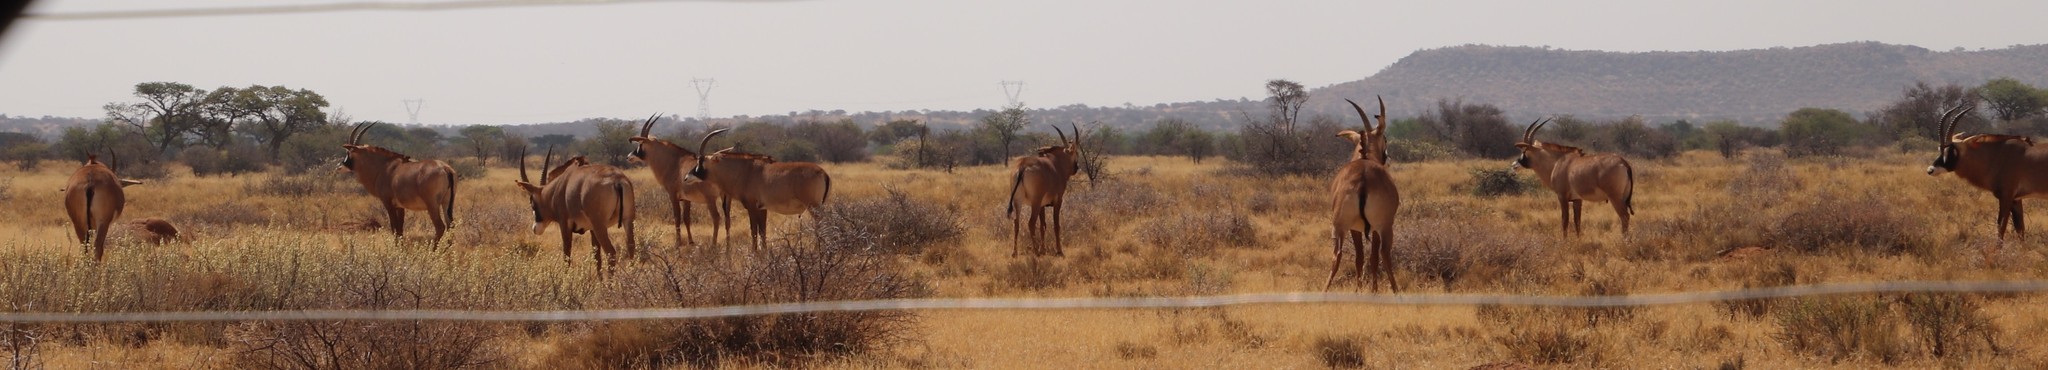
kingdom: Animalia
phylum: Chordata
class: Mammalia
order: Artiodactyla
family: Bovidae
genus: Hippotragus
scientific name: Hippotragus equinus
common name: Roan antelope
